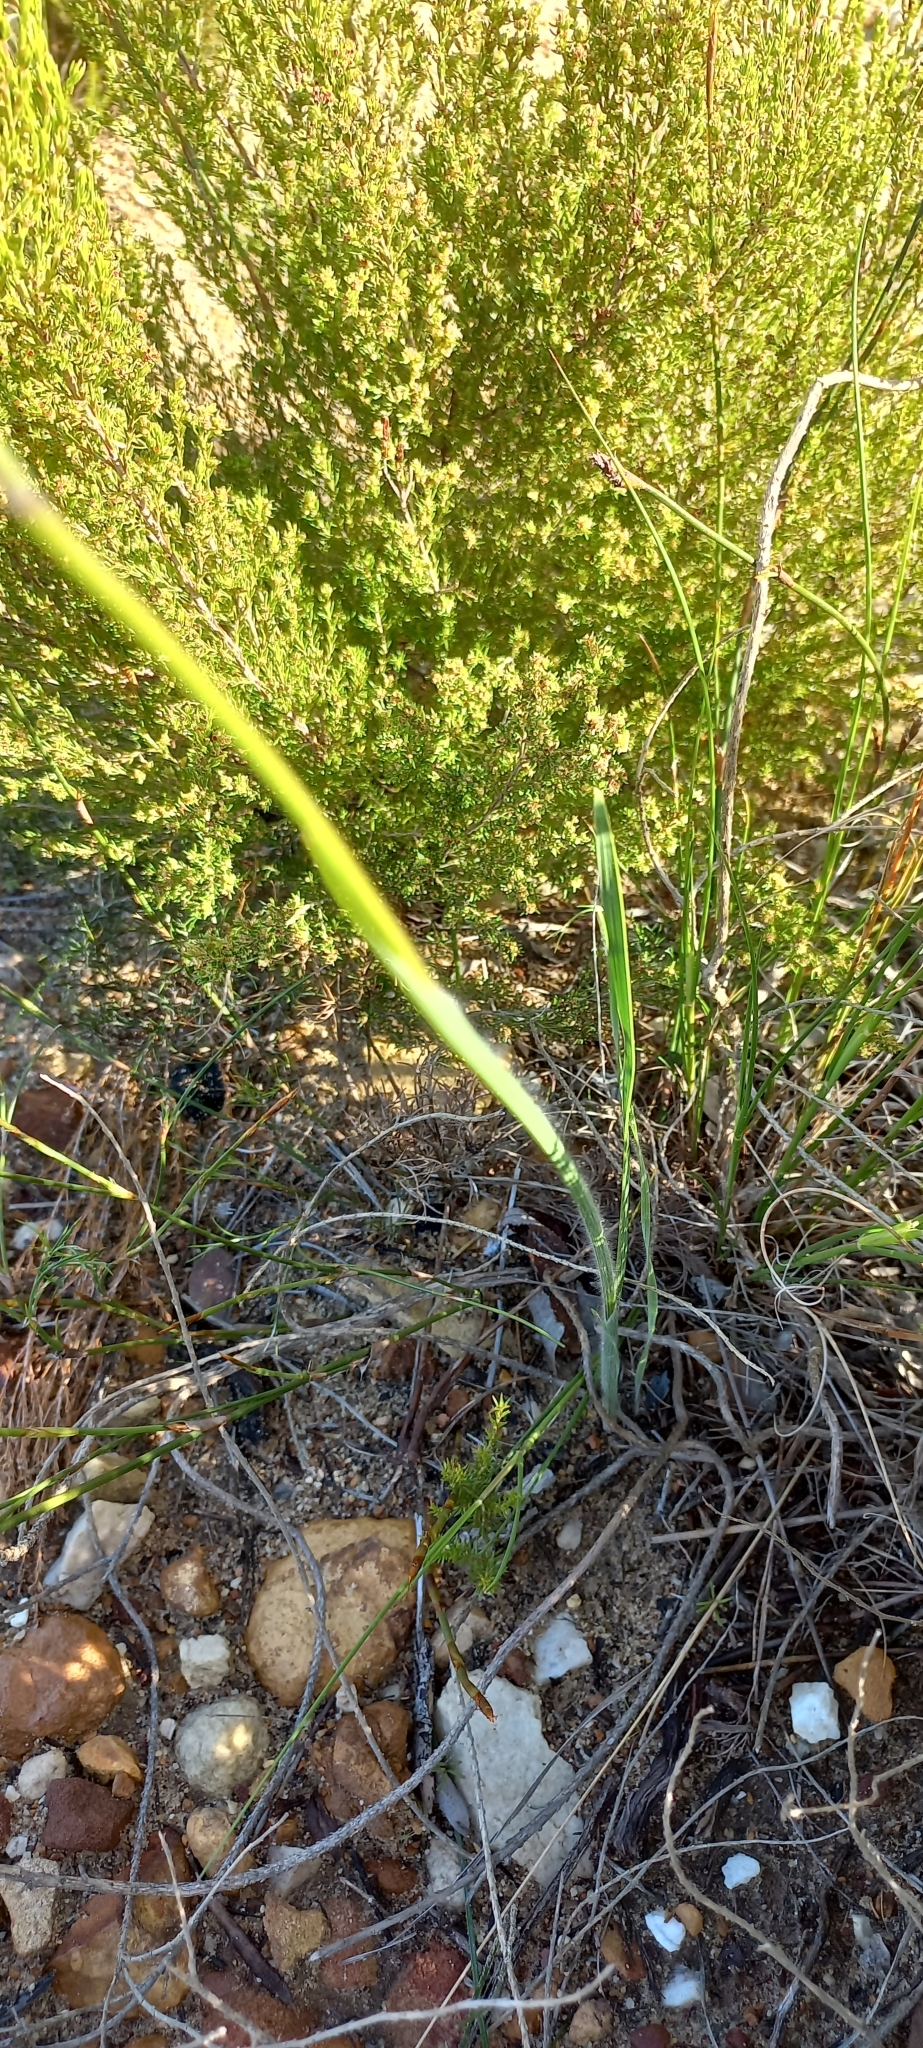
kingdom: Plantae
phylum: Tracheophyta
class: Liliopsida
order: Asparagales
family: Iridaceae
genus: Gladiolus
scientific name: Gladiolus hirsutus
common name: Small pink afrikaner
